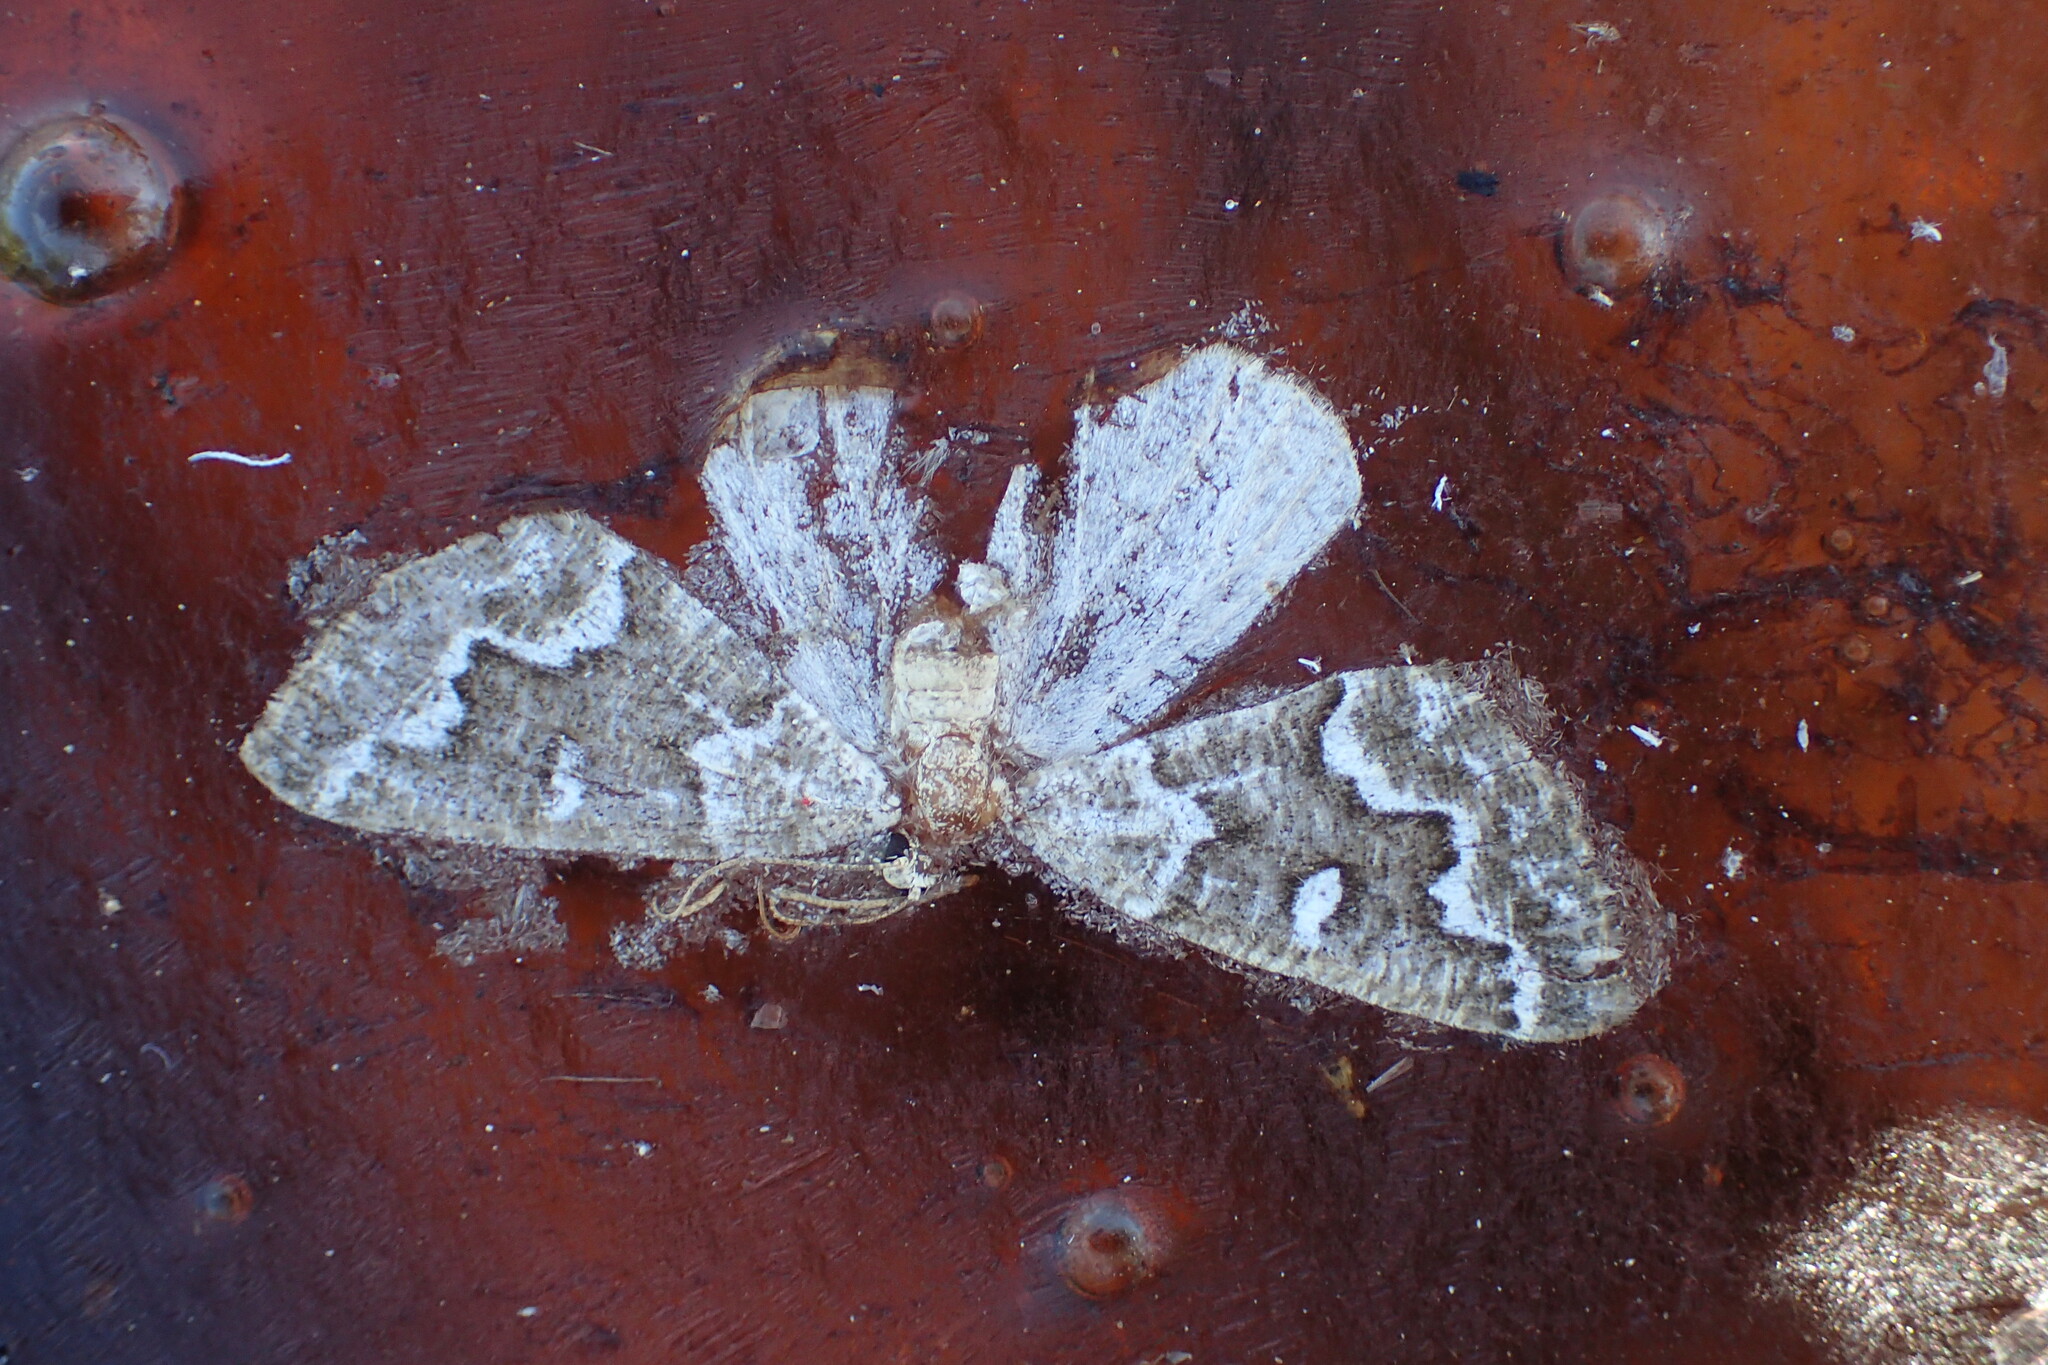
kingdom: Animalia
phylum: Arthropoda
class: Insecta
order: Lepidoptera
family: Geometridae
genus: Caripeta
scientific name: Caripeta divisata
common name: Gray spruce looper
